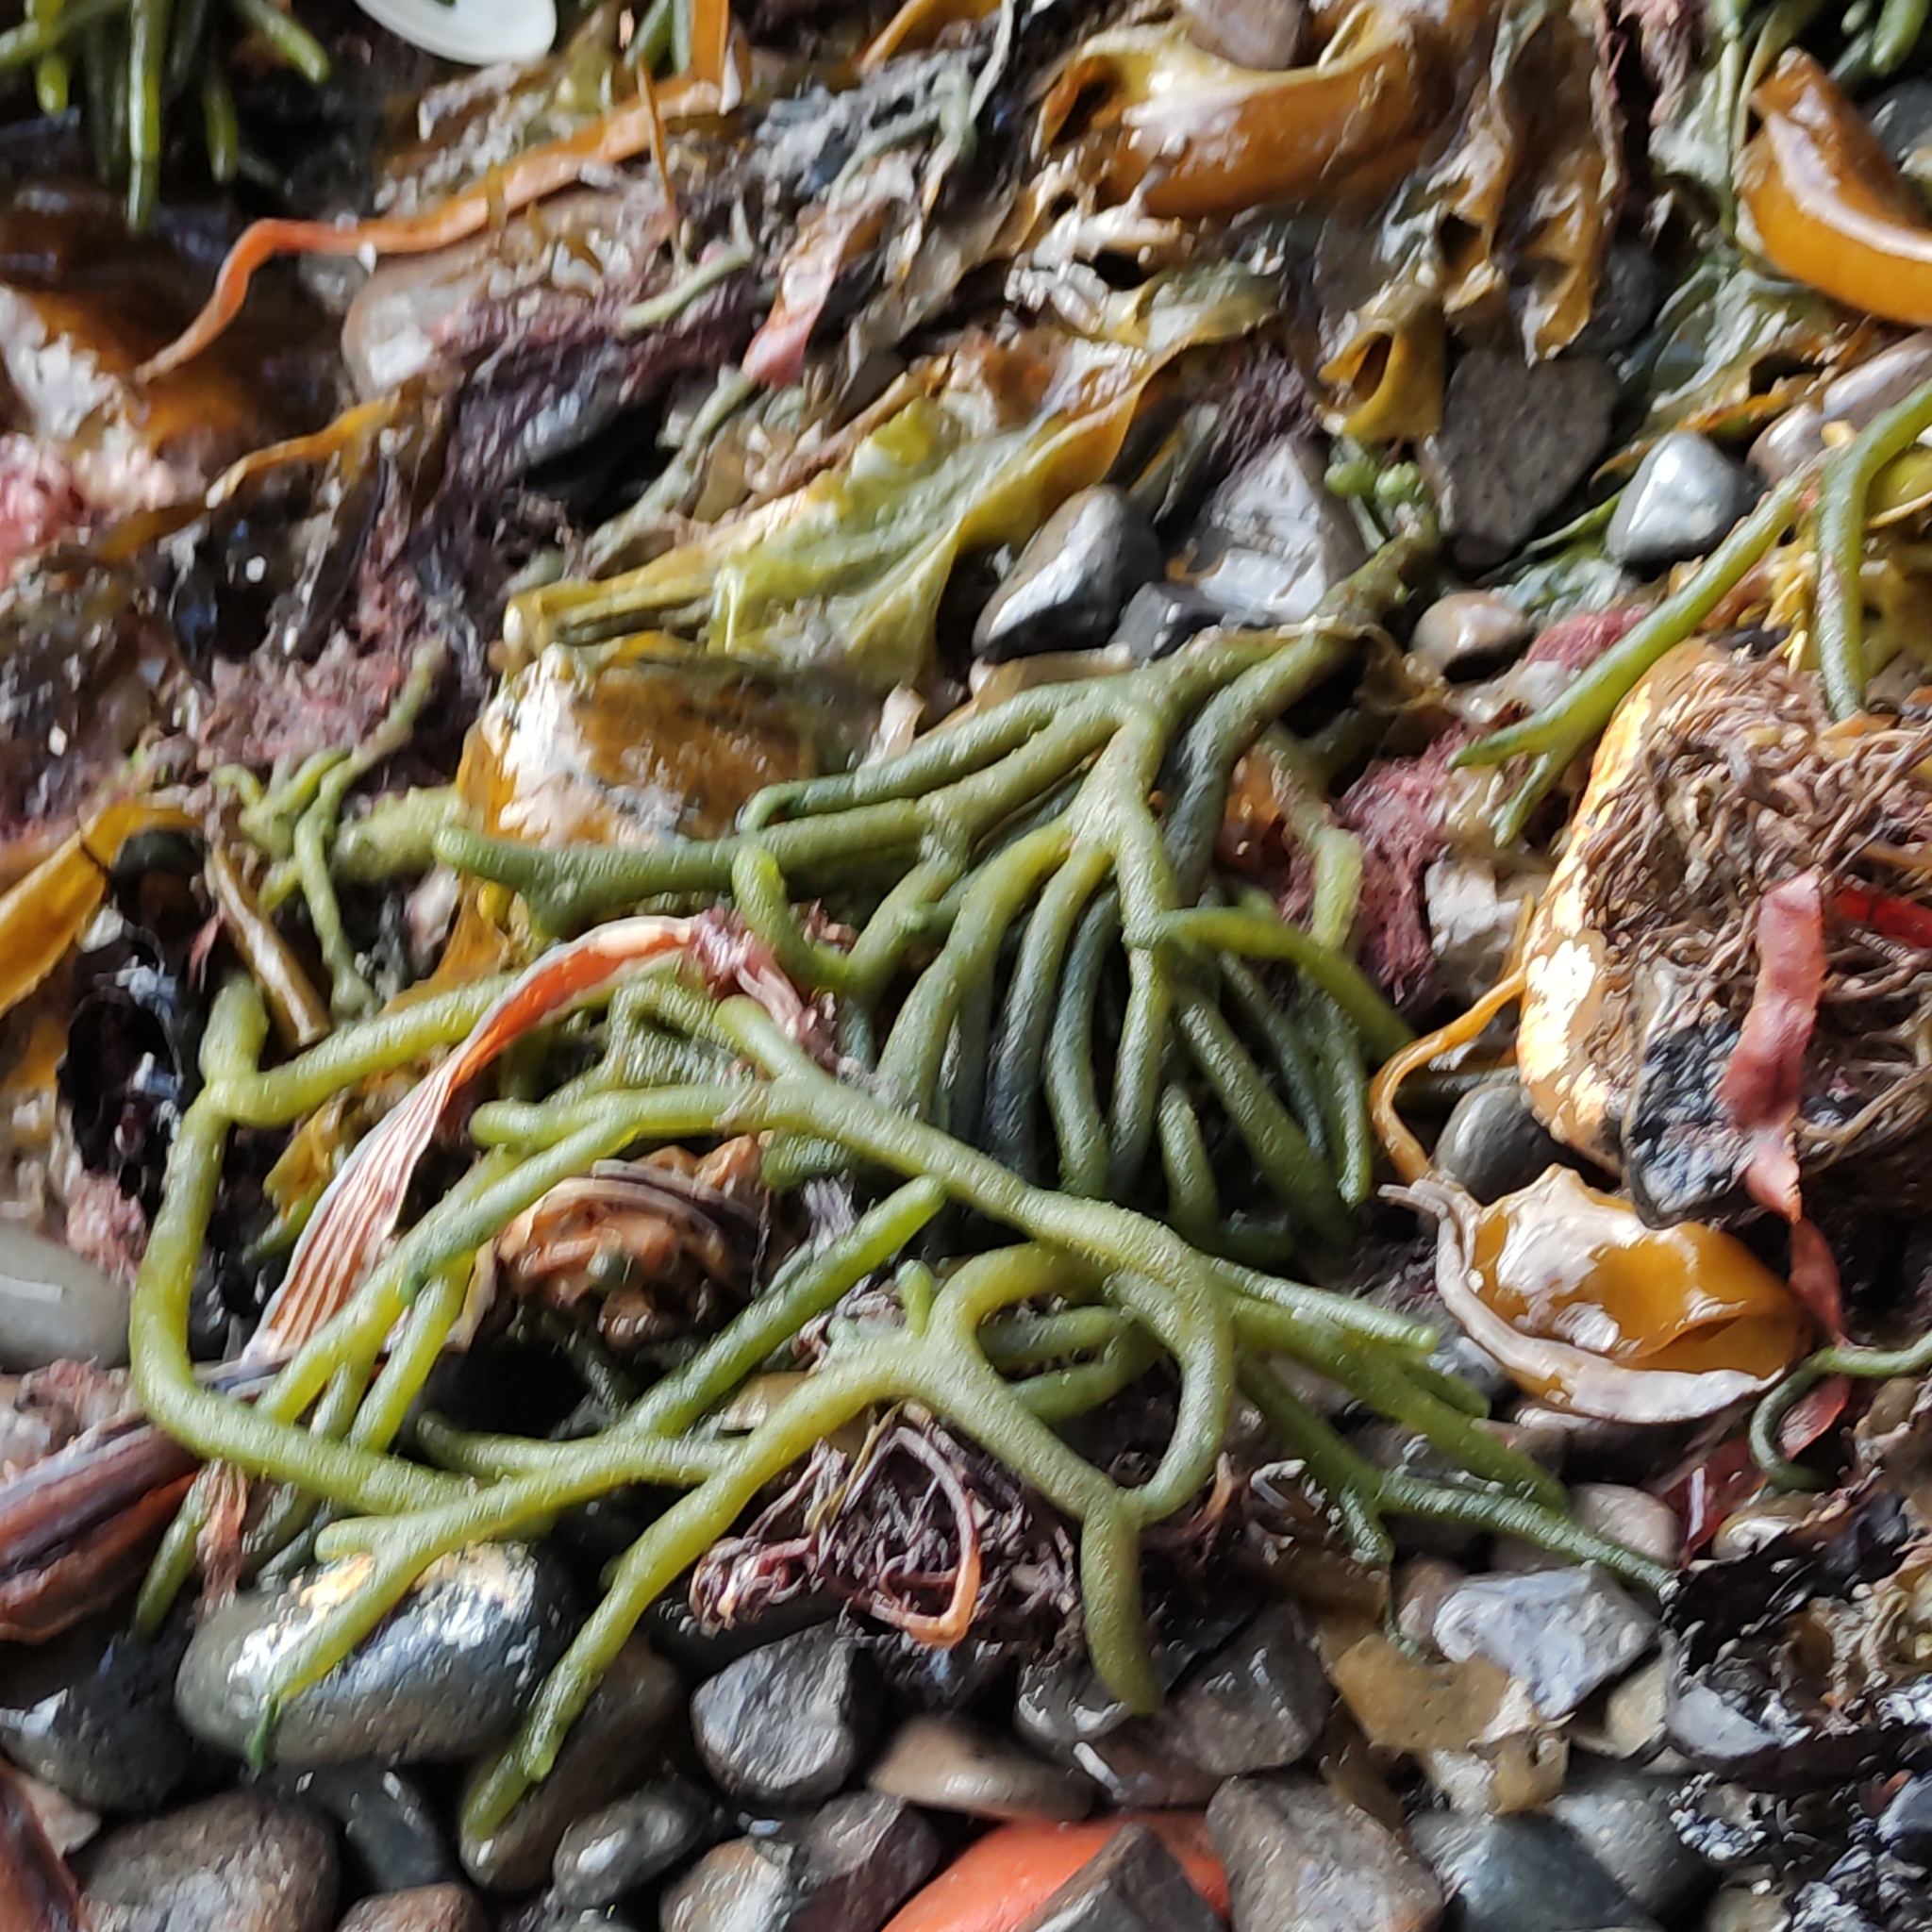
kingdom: Plantae
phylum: Chlorophyta
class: Ulvophyceae
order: Bryopsidales
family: Codiaceae
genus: Codium
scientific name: Codium fragile
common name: Dead man's fingers
